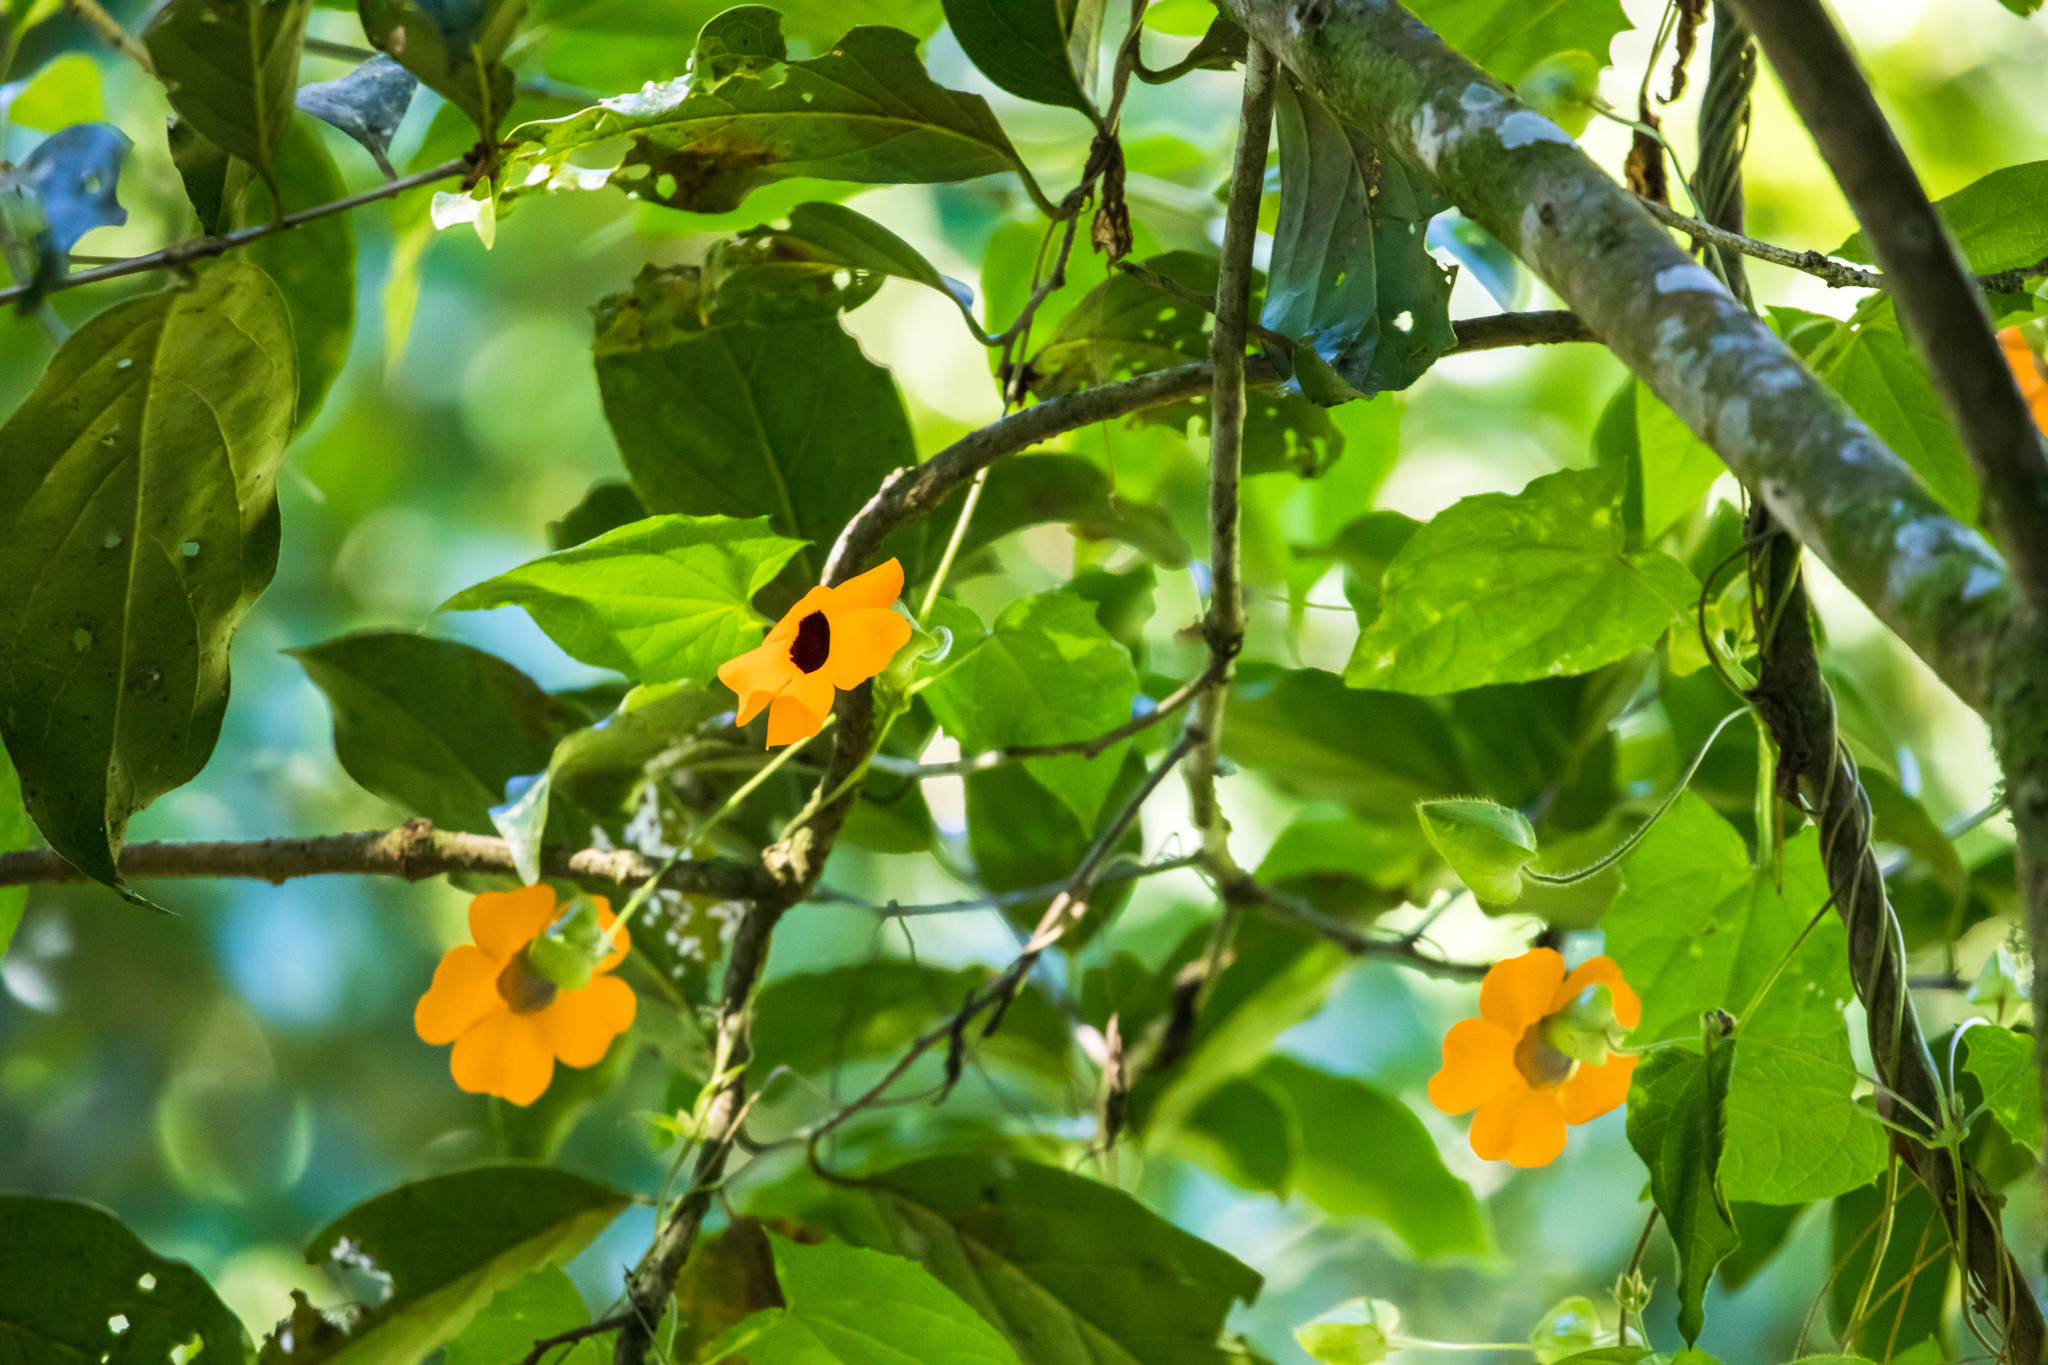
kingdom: Plantae
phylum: Tracheophyta
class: Magnoliopsida
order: Lamiales
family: Acanthaceae
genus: Thunbergia
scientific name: Thunbergia alata
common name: Blackeyed susan vine
